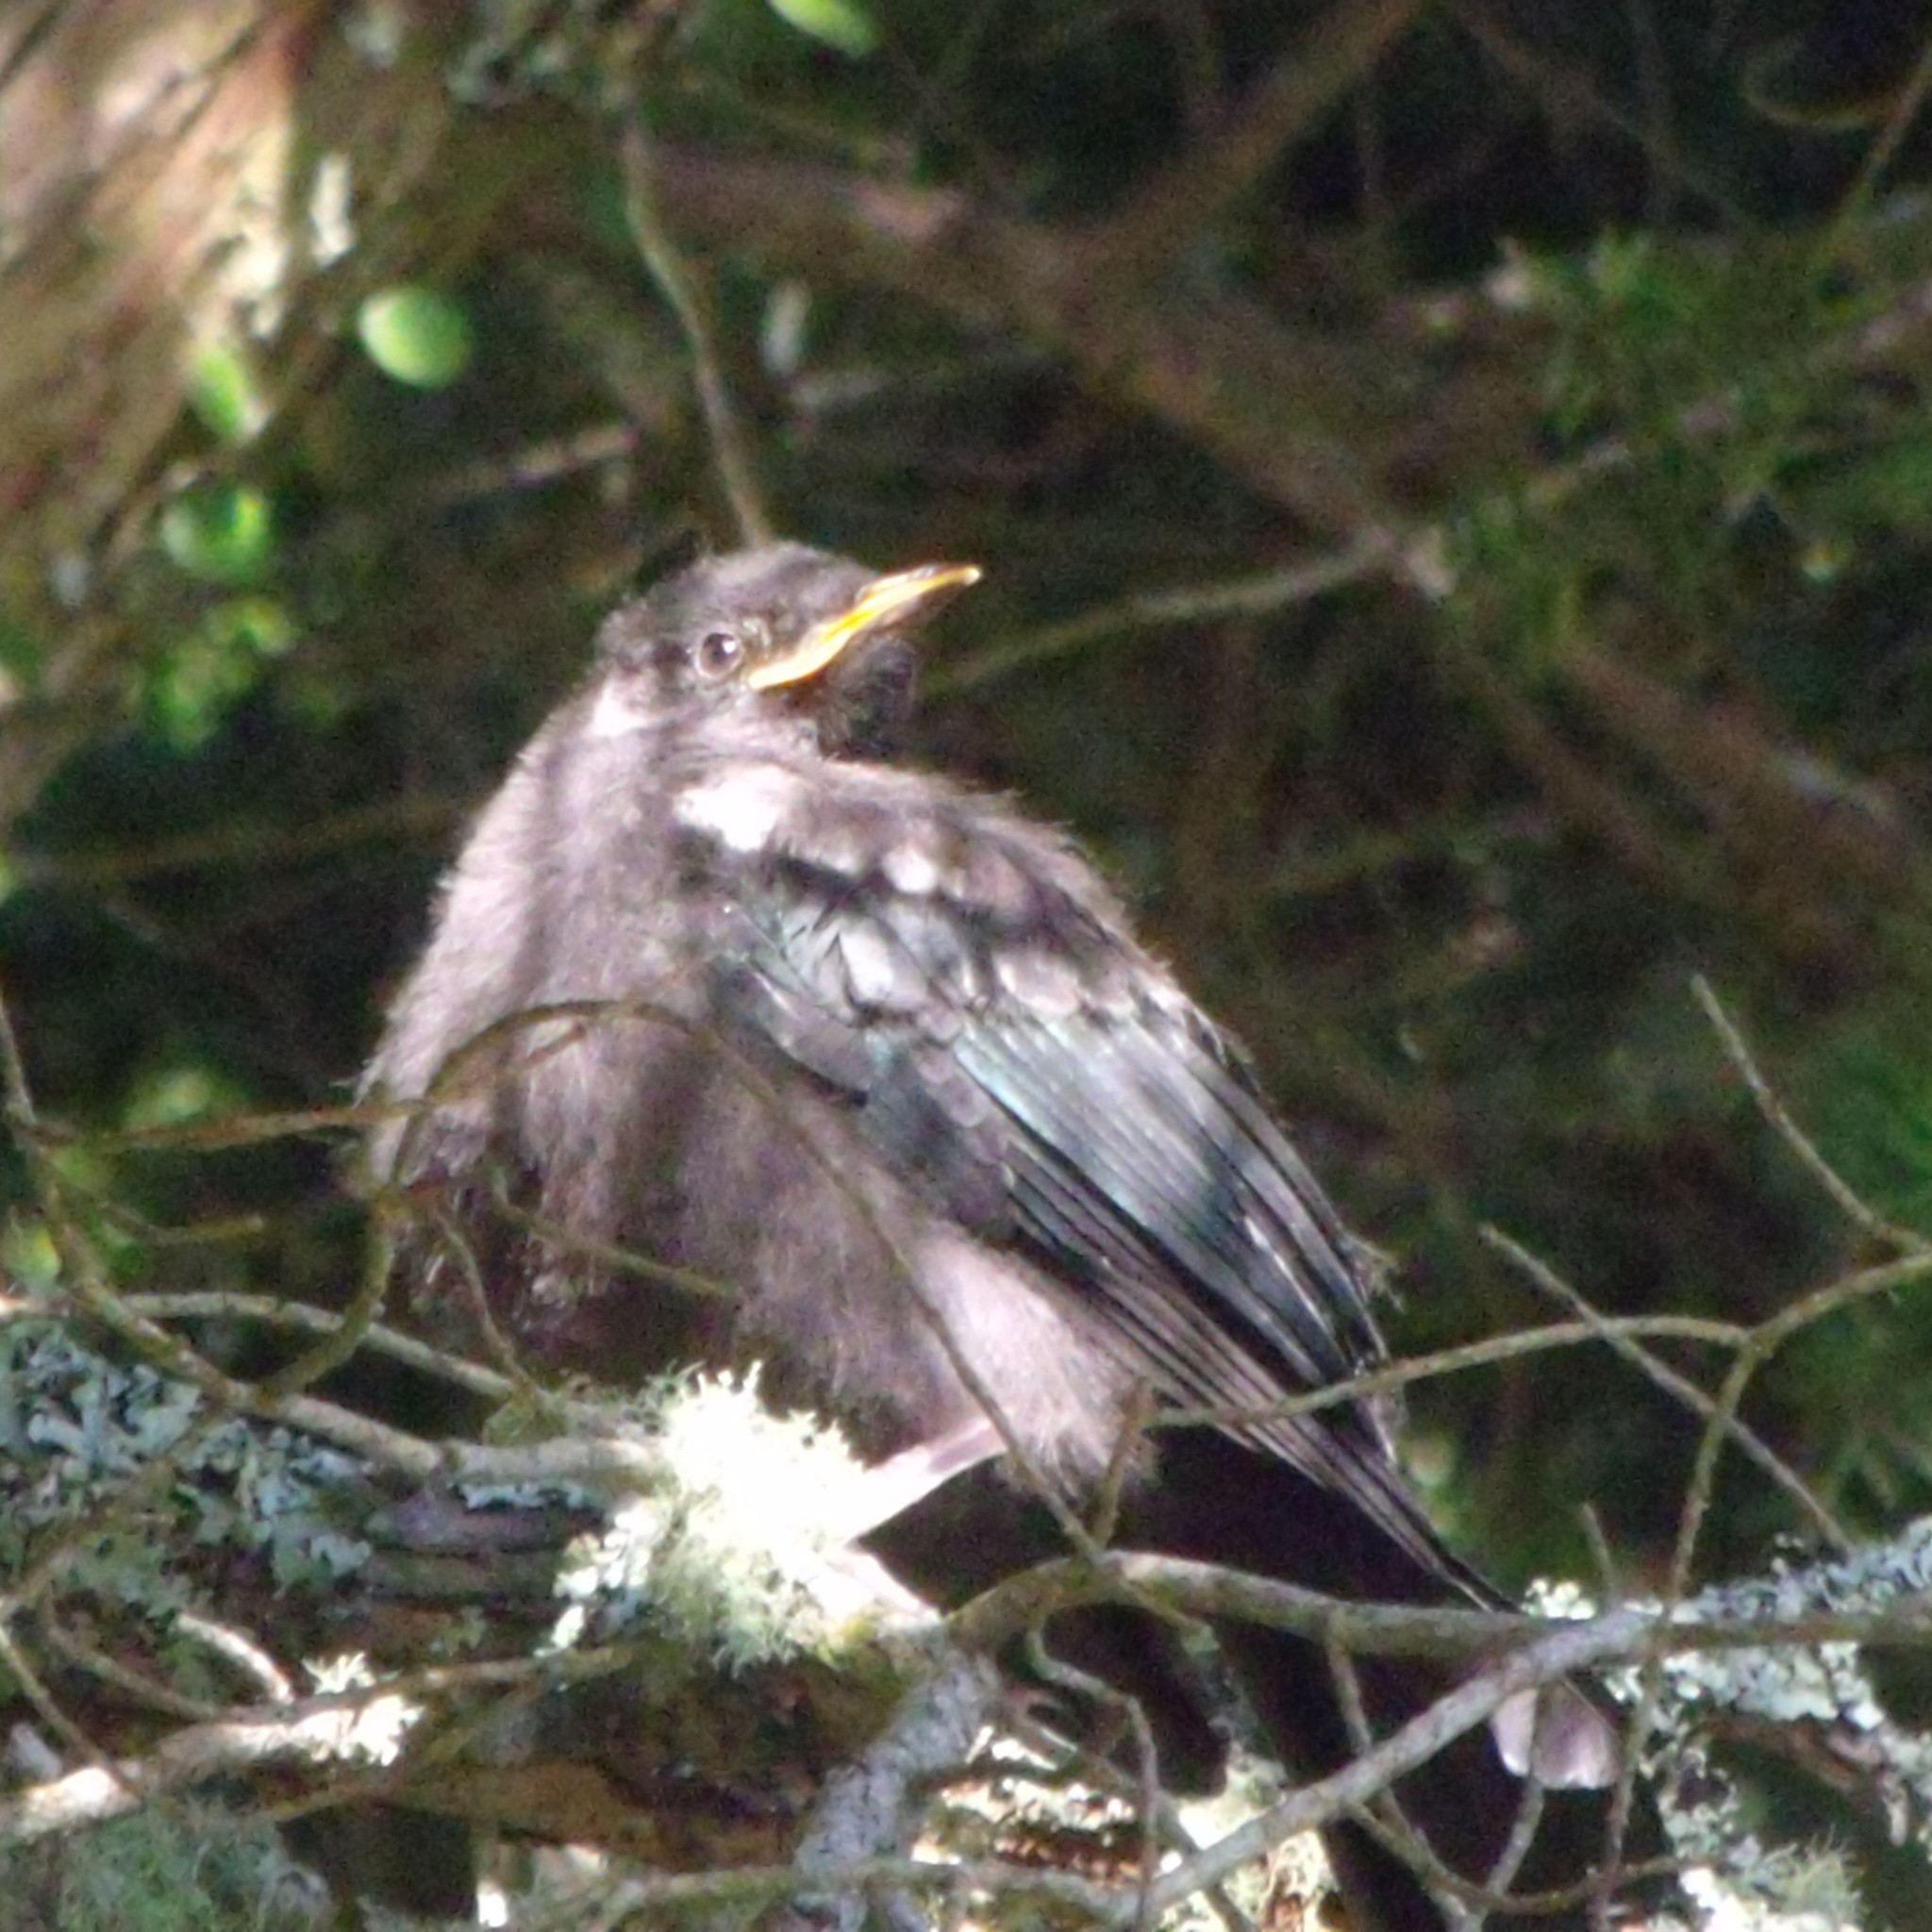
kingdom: Animalia
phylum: Chordata
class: Aves
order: Passeriformes
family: Meliphagidae
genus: Prosthemadera
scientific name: Prosthemadera novaeseelandiae
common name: Tui
